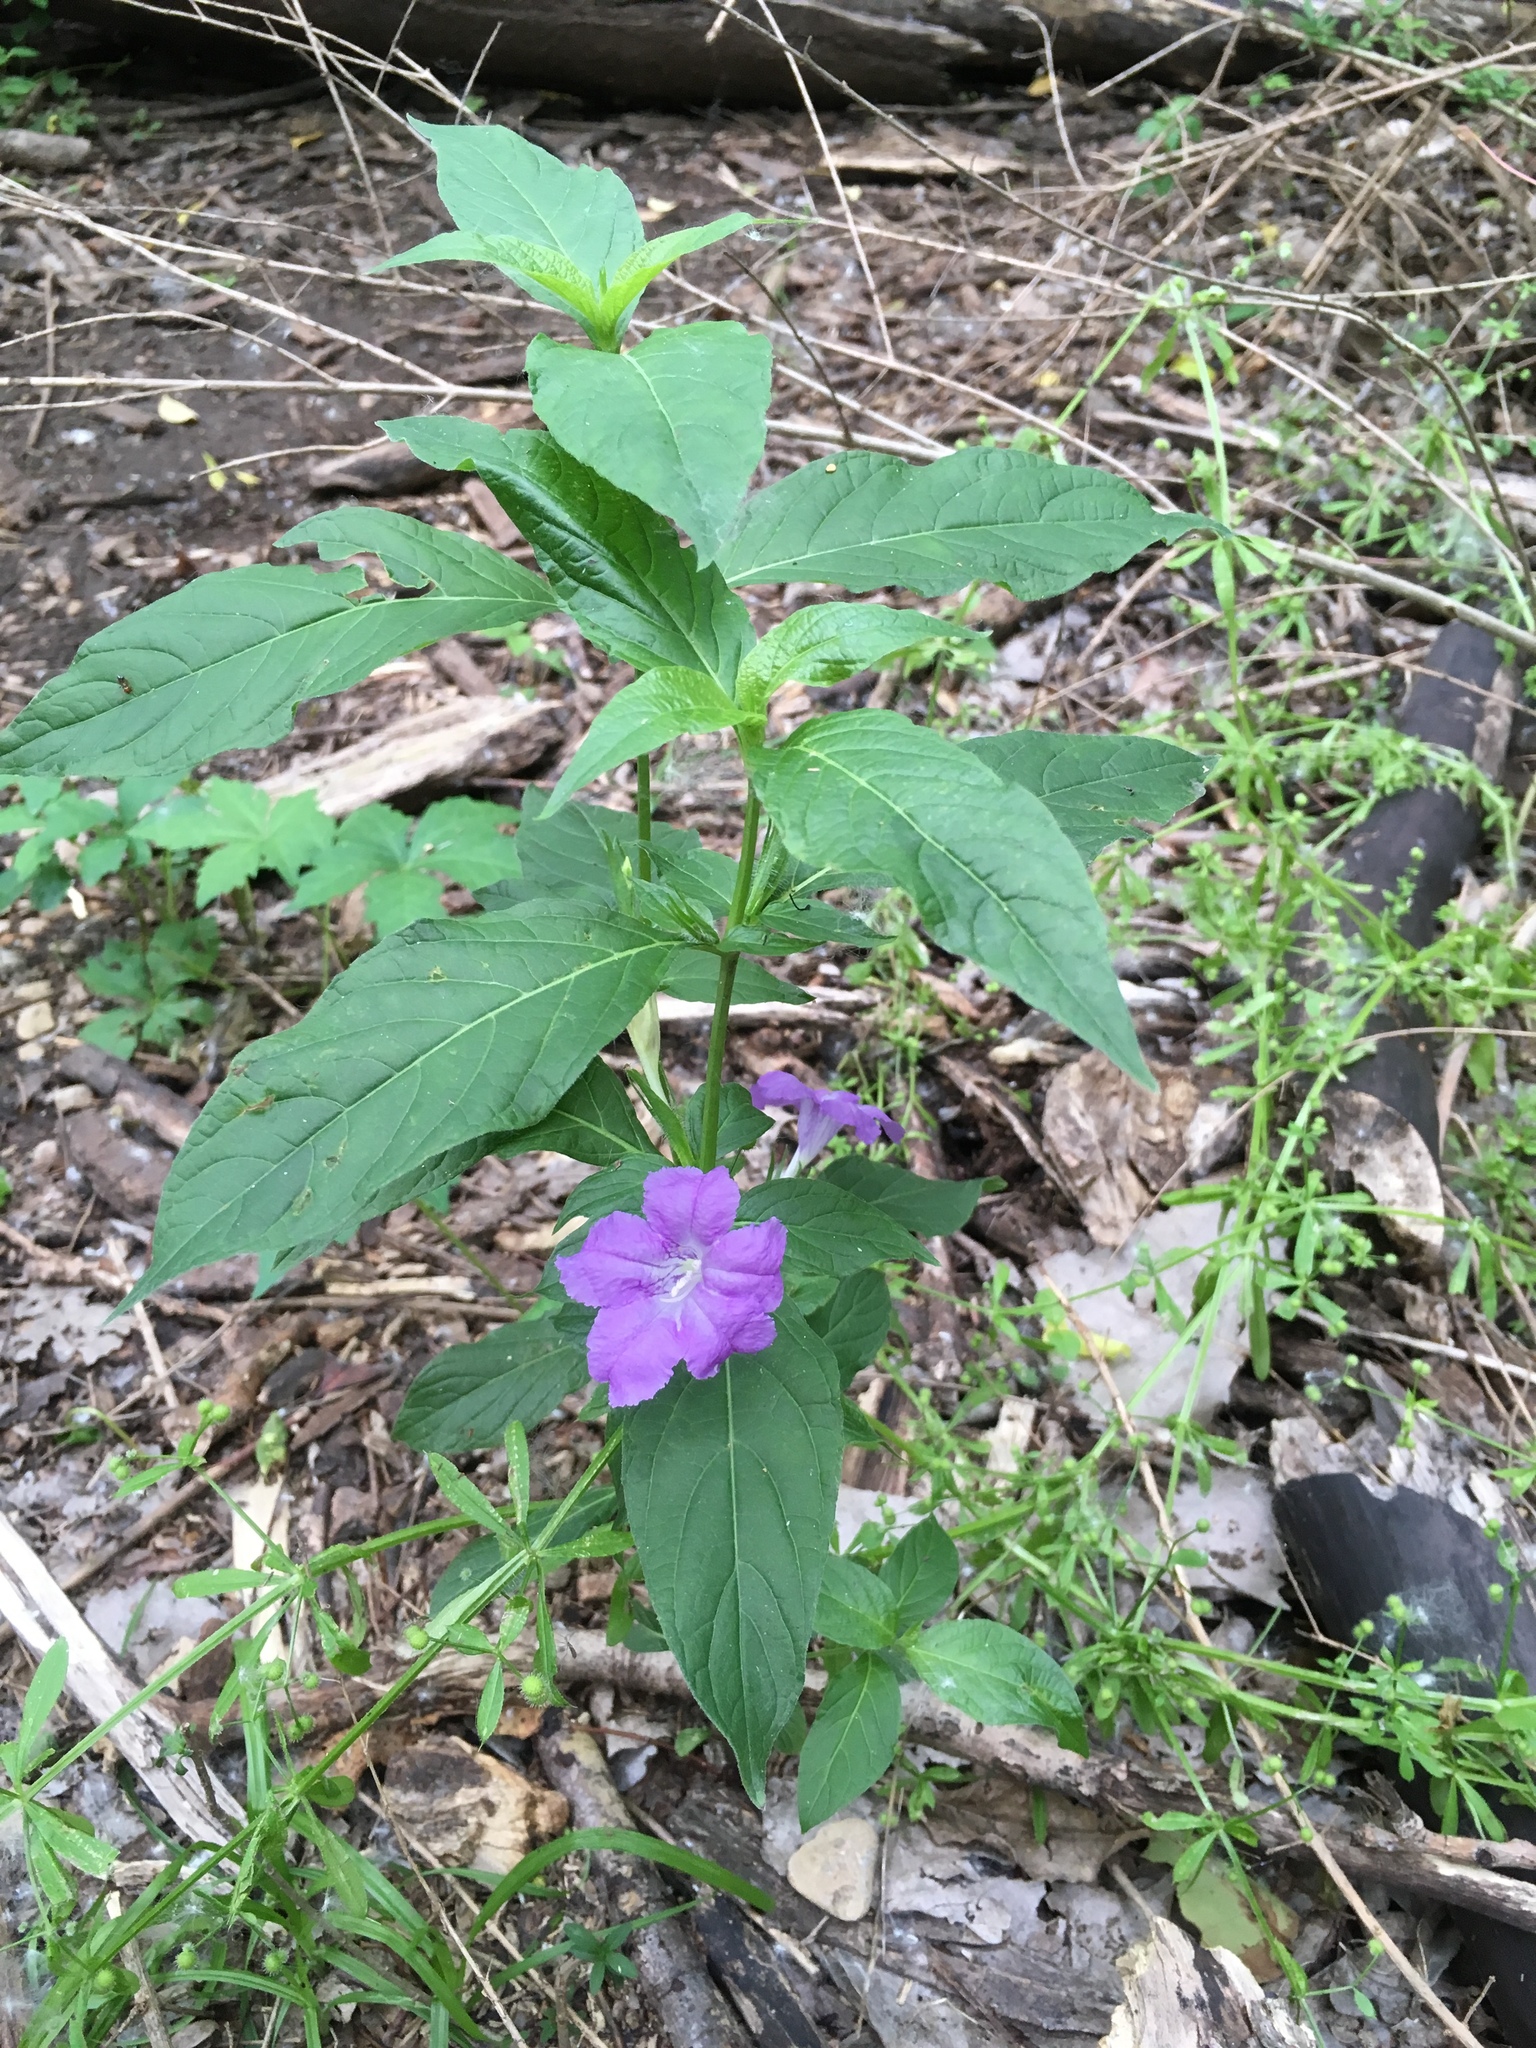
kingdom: Plantae
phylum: Tracheophyta
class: Magnoliopsida
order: Lamiales
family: Acanthaceae
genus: Ruellia
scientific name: Ruellia strepens
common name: Limestone wild petunia
